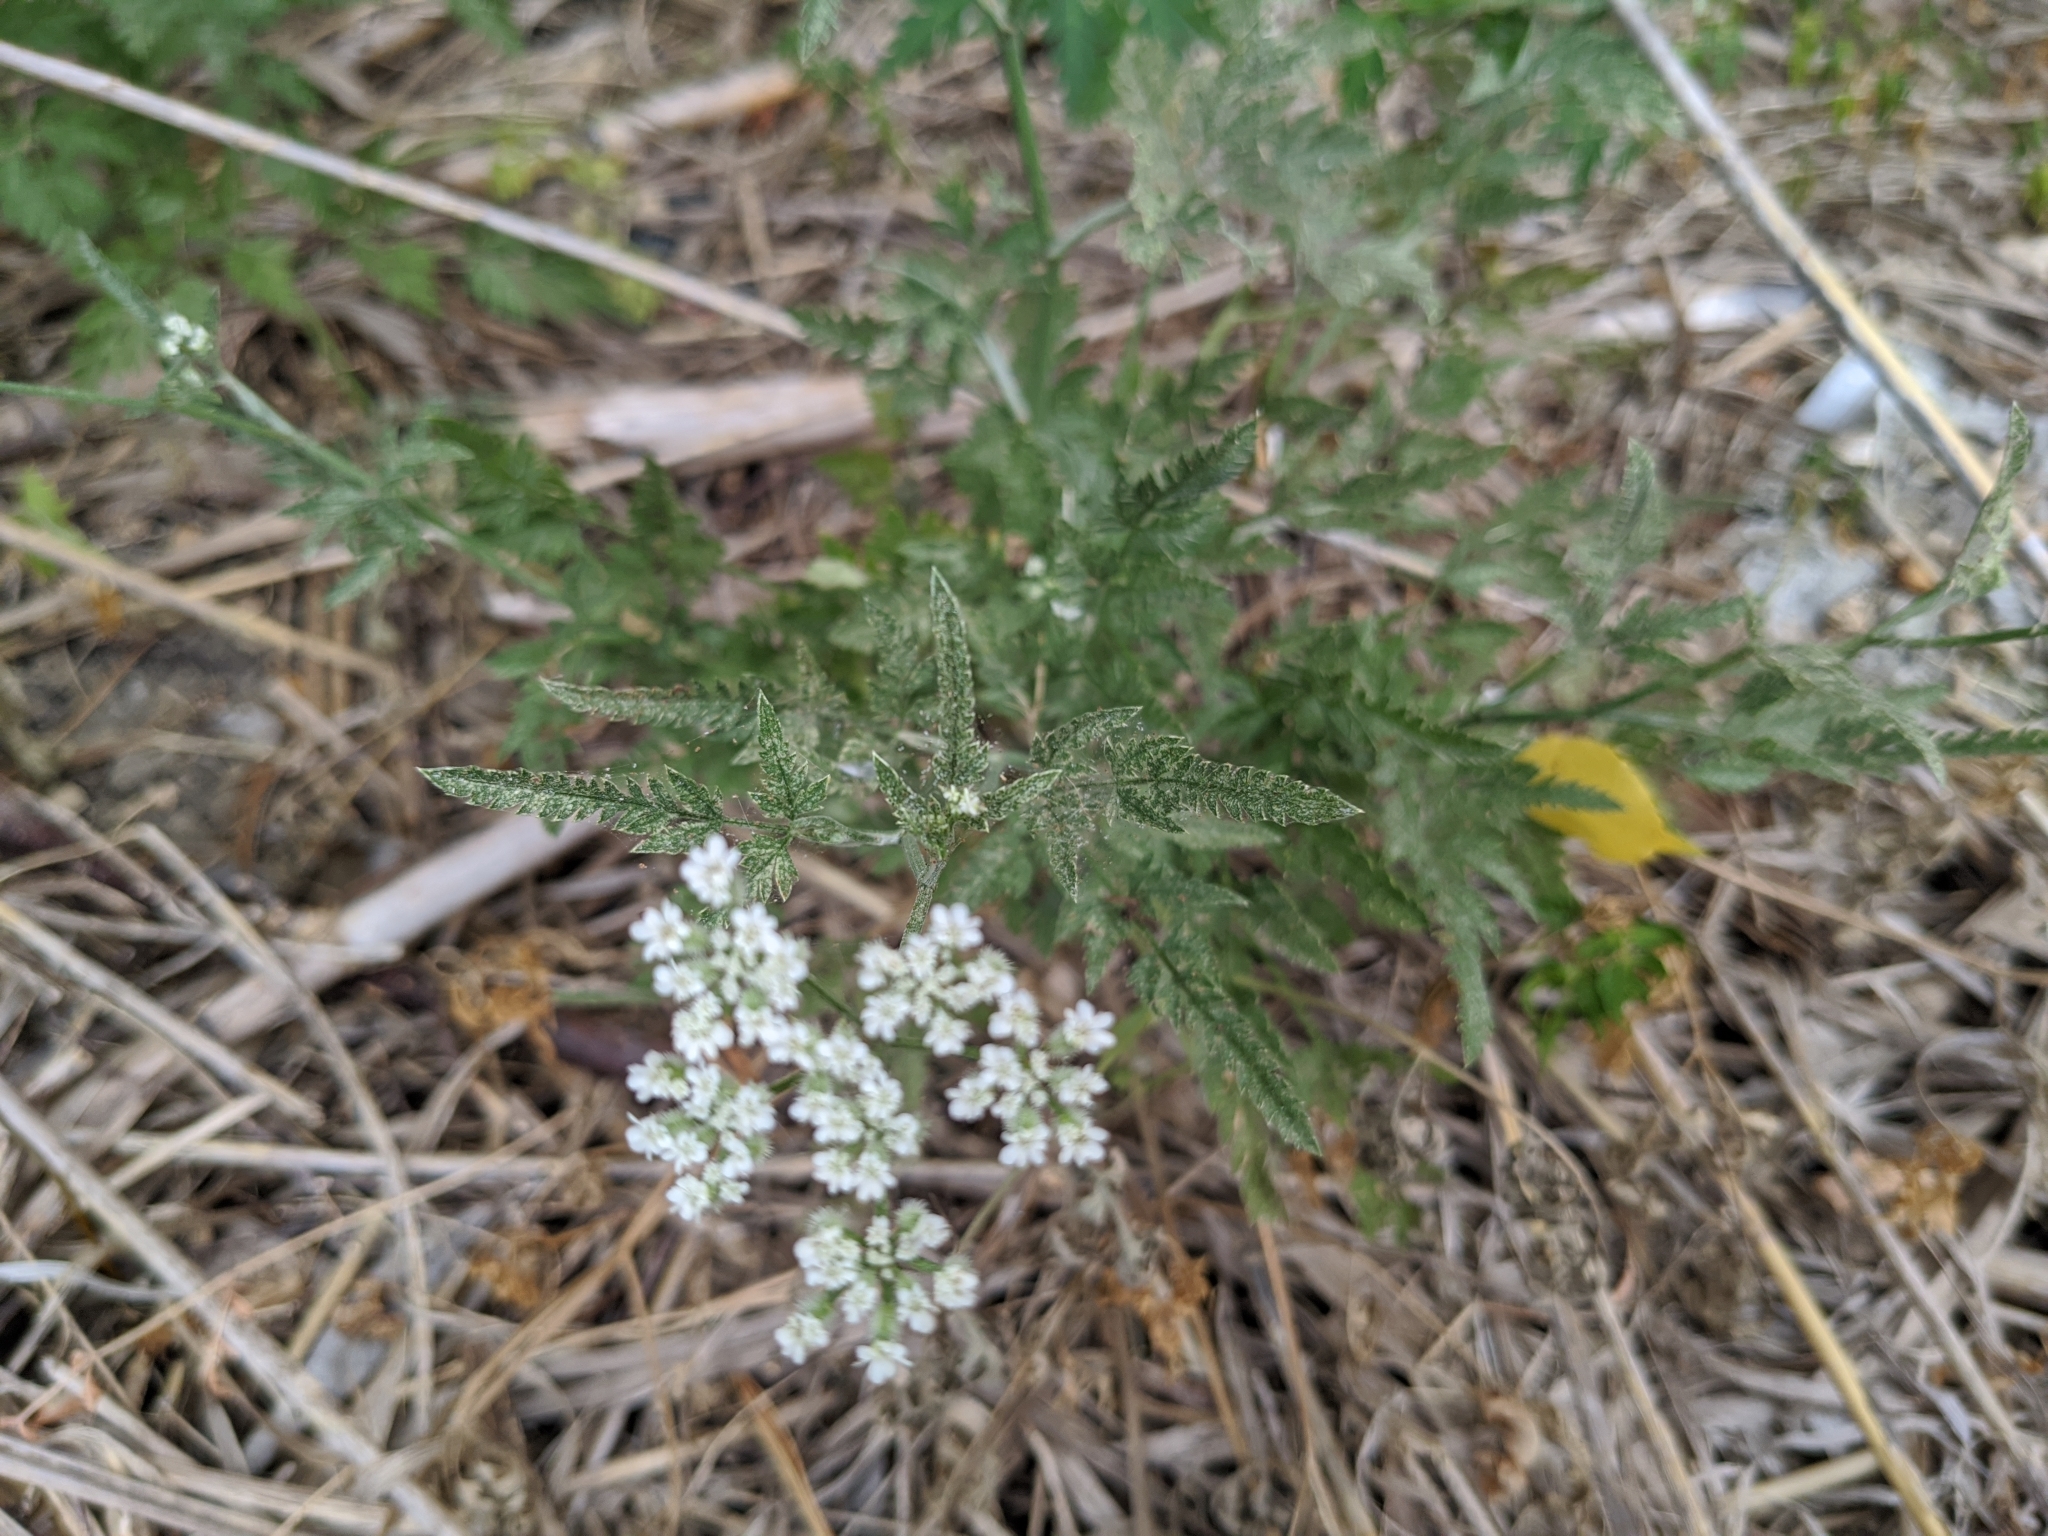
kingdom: Plantae
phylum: Tracheophyta
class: Magnoliopsida
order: Apiales
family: Apiaceae
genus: Torilis
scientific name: Torilis arvensis
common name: Spreading hedge-parsley
